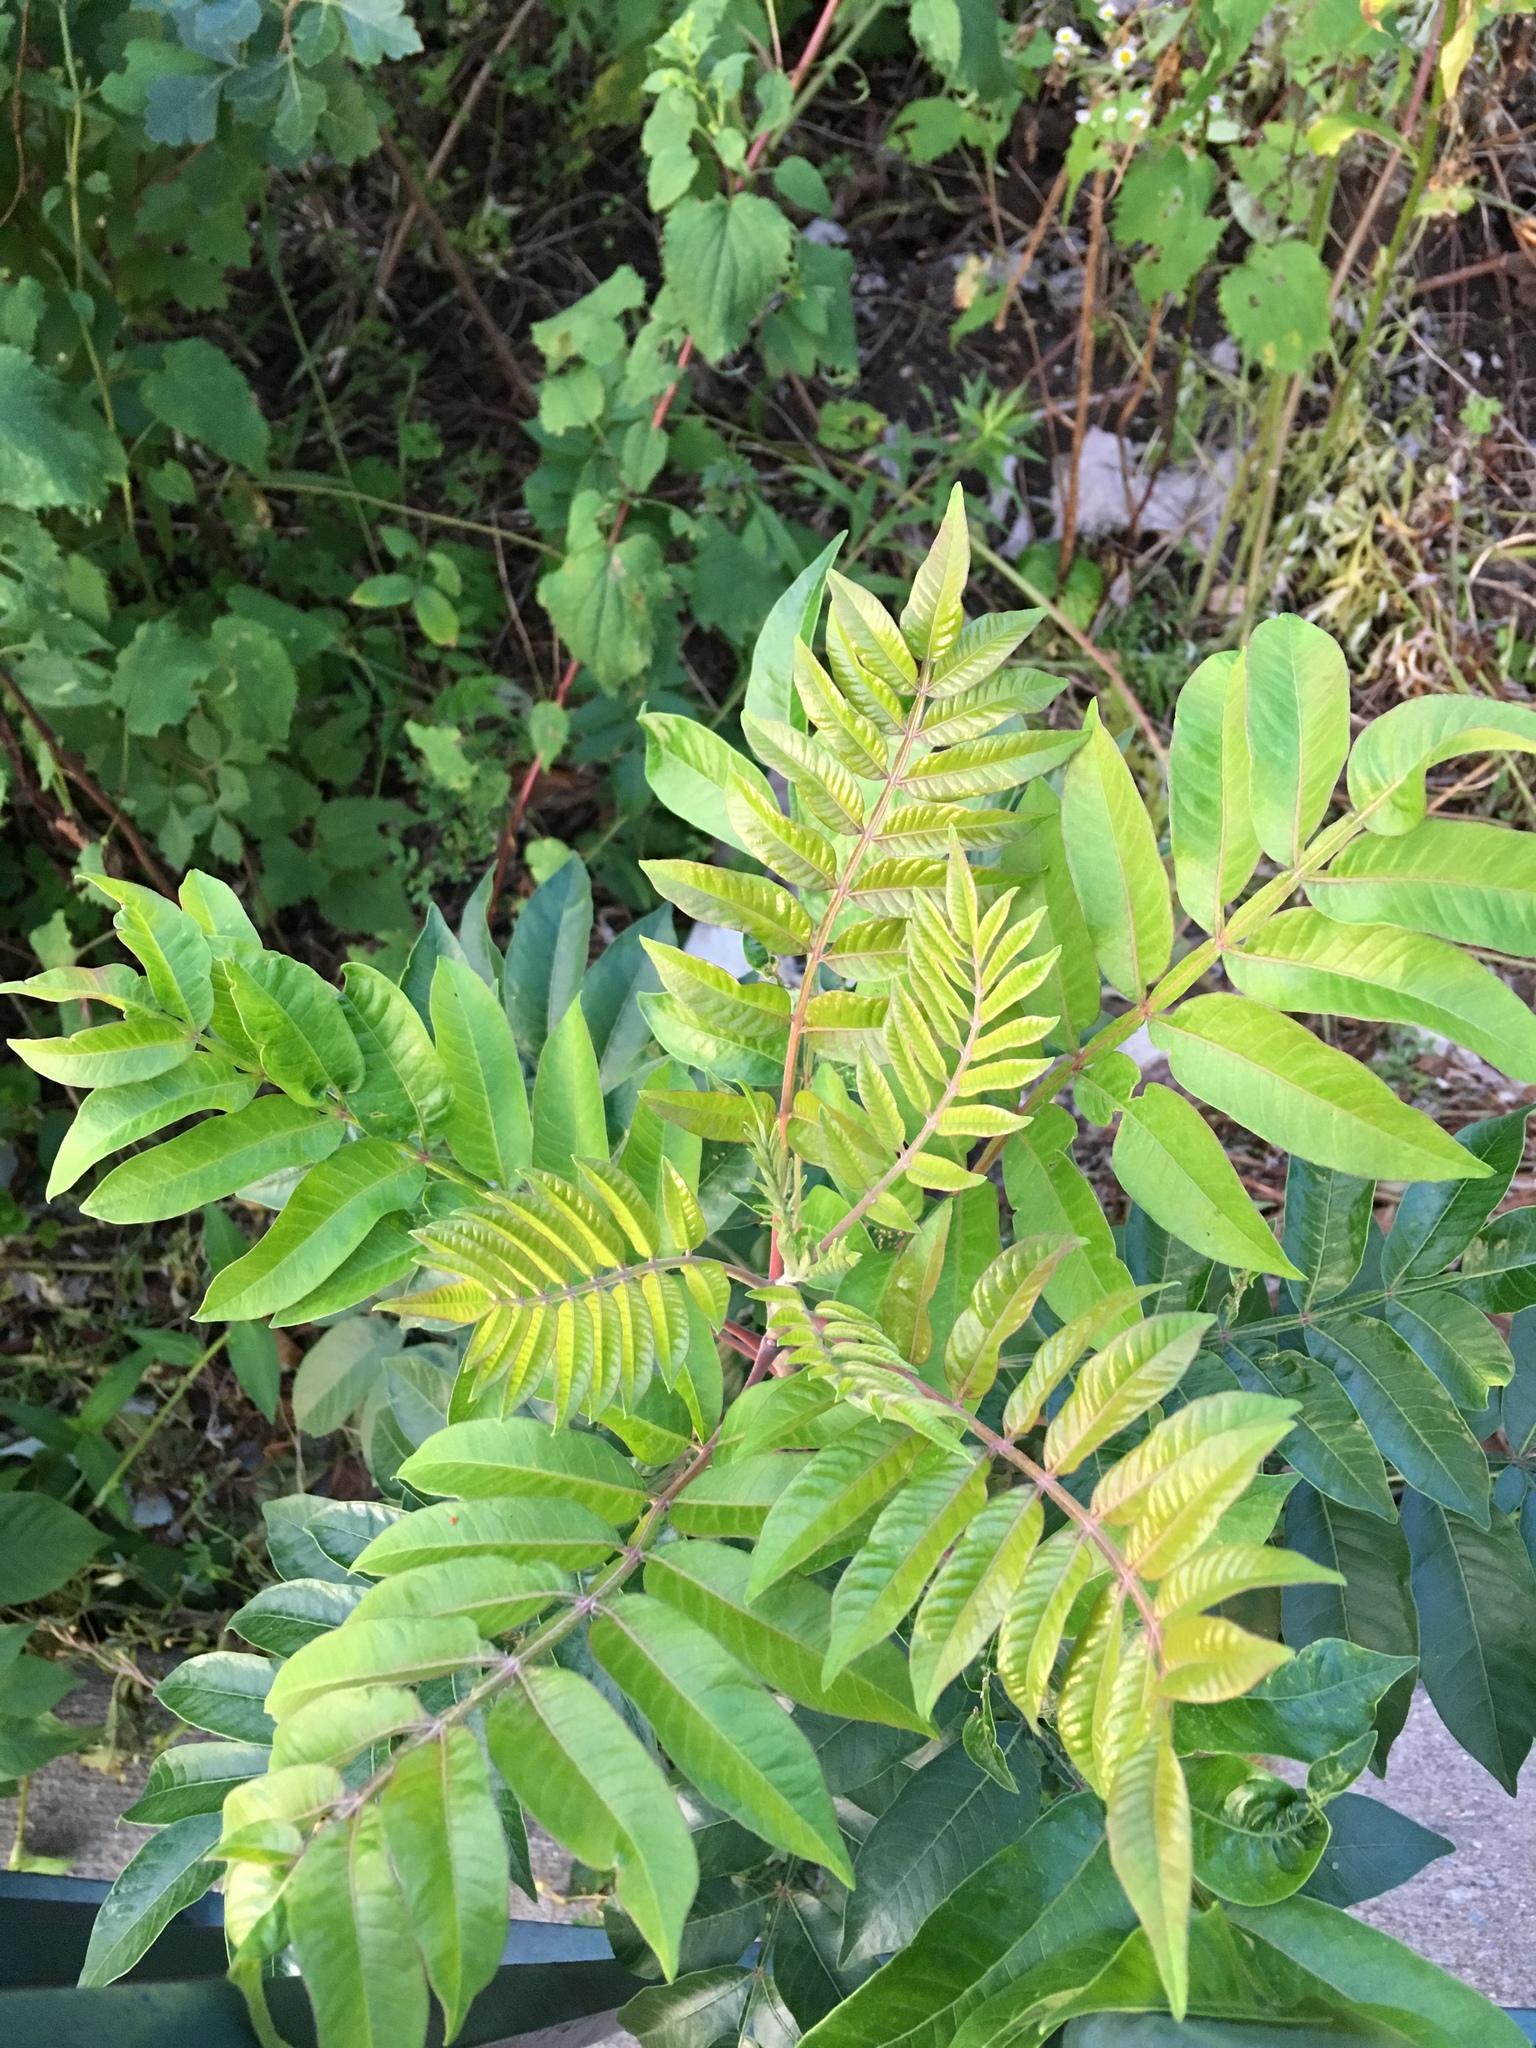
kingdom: Plantae
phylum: Tracheophyta
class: Magnoliopsida
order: Sapindales
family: Anacardiaceae
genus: Rhus
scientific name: Rhus copallina
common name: Shining sumac
